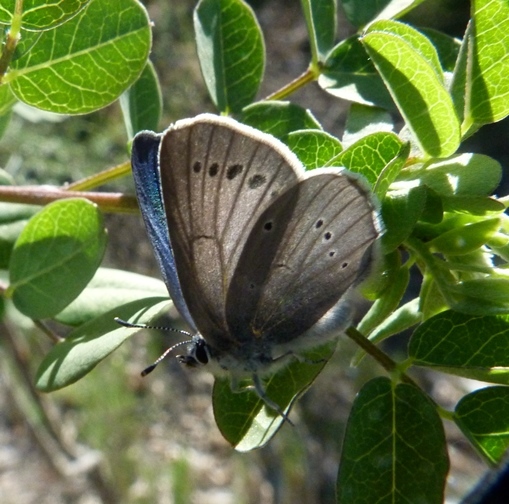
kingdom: Animalia
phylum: Arthropoda
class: Insecta
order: Lepidoptera
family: Lycaenidae
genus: Iolana
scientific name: Iolana debilitata
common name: Iolas blue
